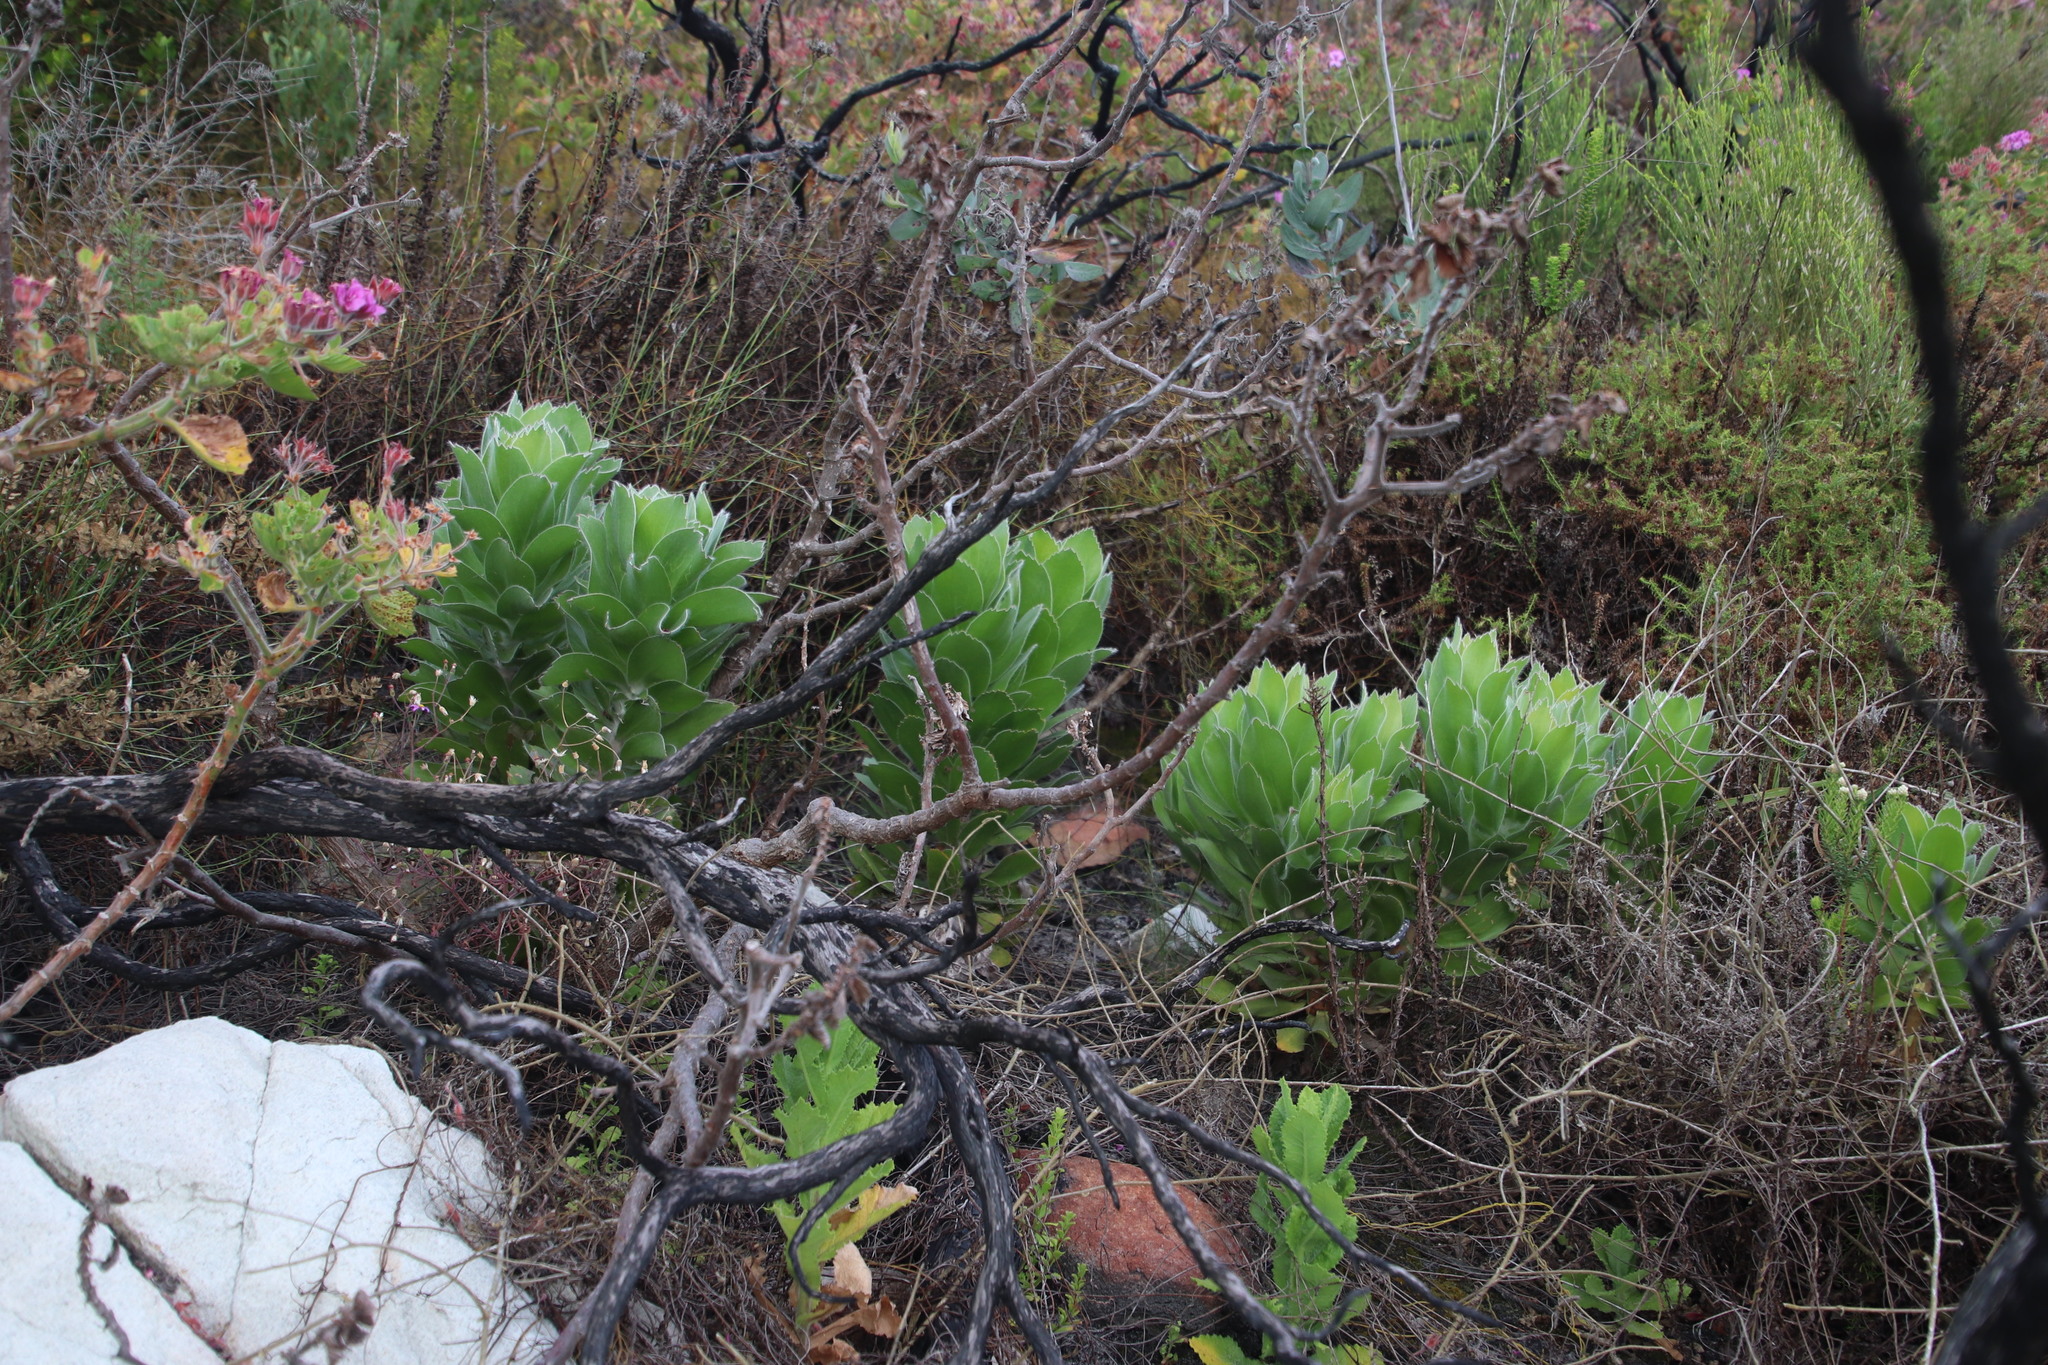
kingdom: Plantae
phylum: Tracheophyta
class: Magnoliopsida
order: Proteales
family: Proteaceae
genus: Leucospermum
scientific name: Leucospermum conocarpodendron
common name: Tree pincushion
